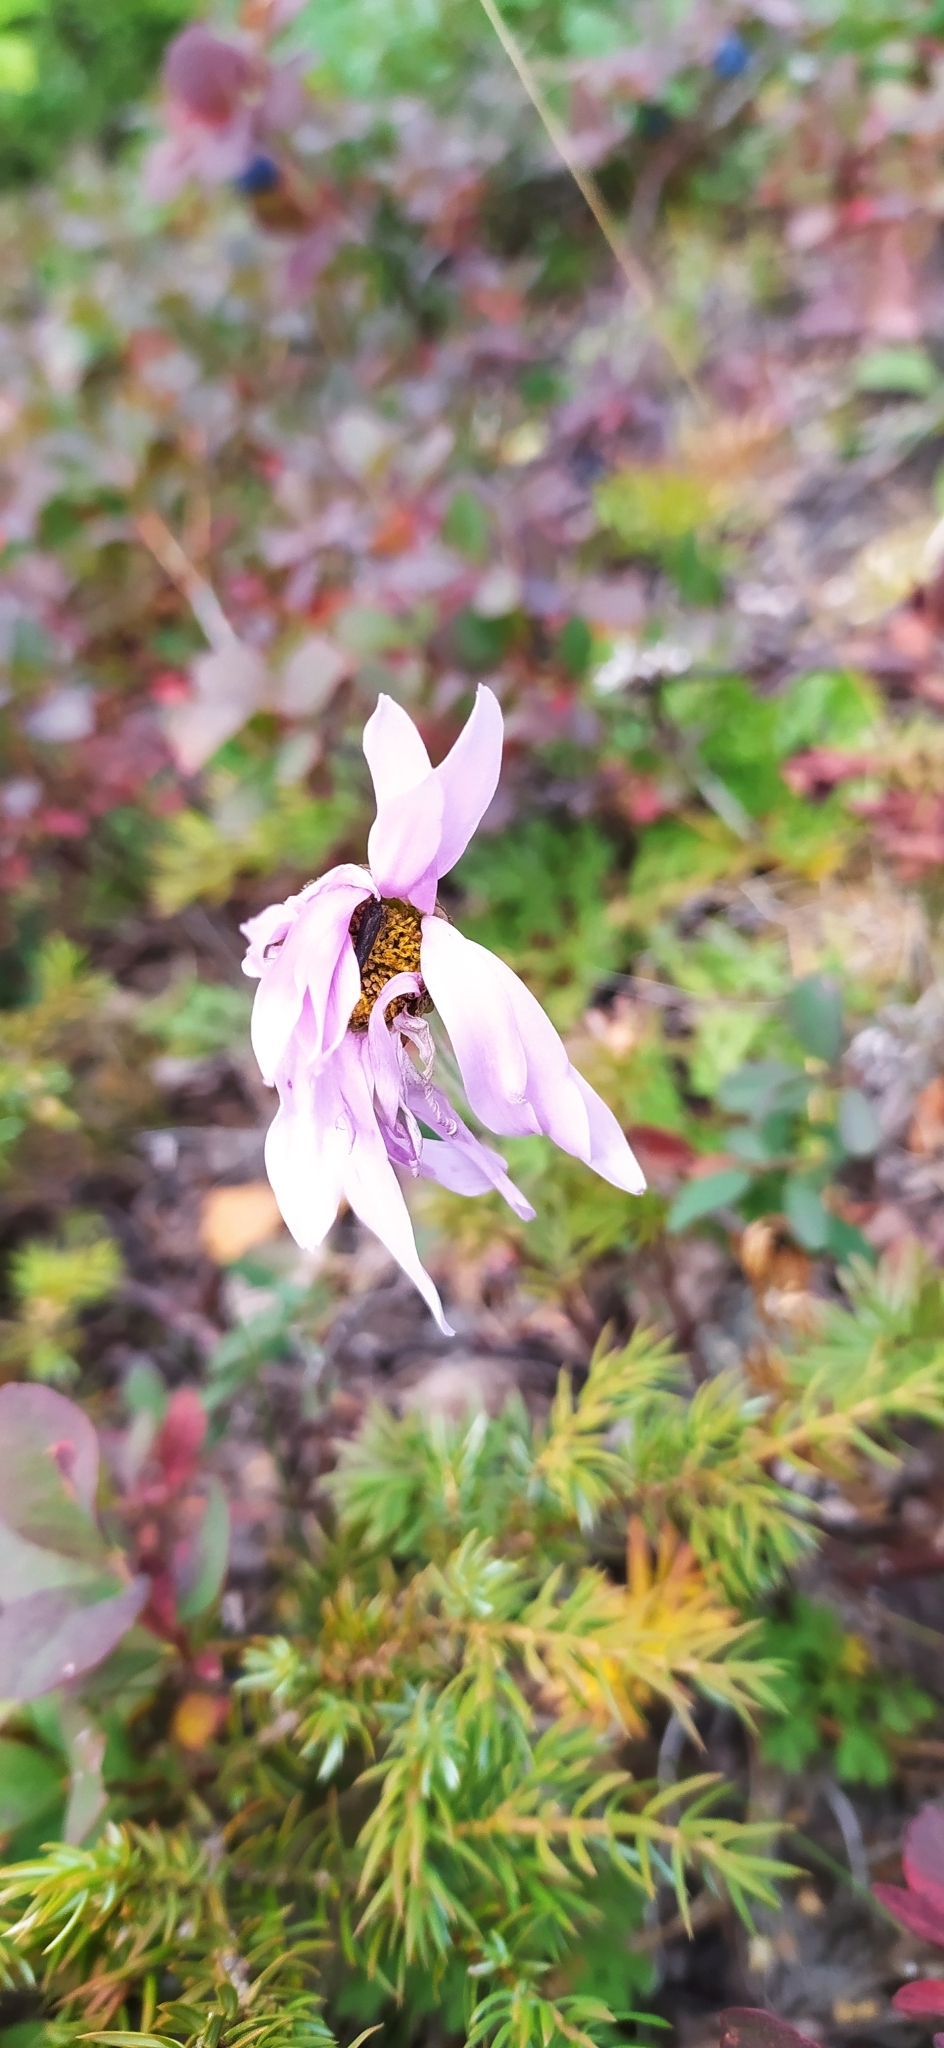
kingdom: Plantae
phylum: Tracheophyta
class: Magnoliopsida
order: Asterales
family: Asteraceae
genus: Chrysanthemum
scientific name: Chrysanthemum zawadzkii
